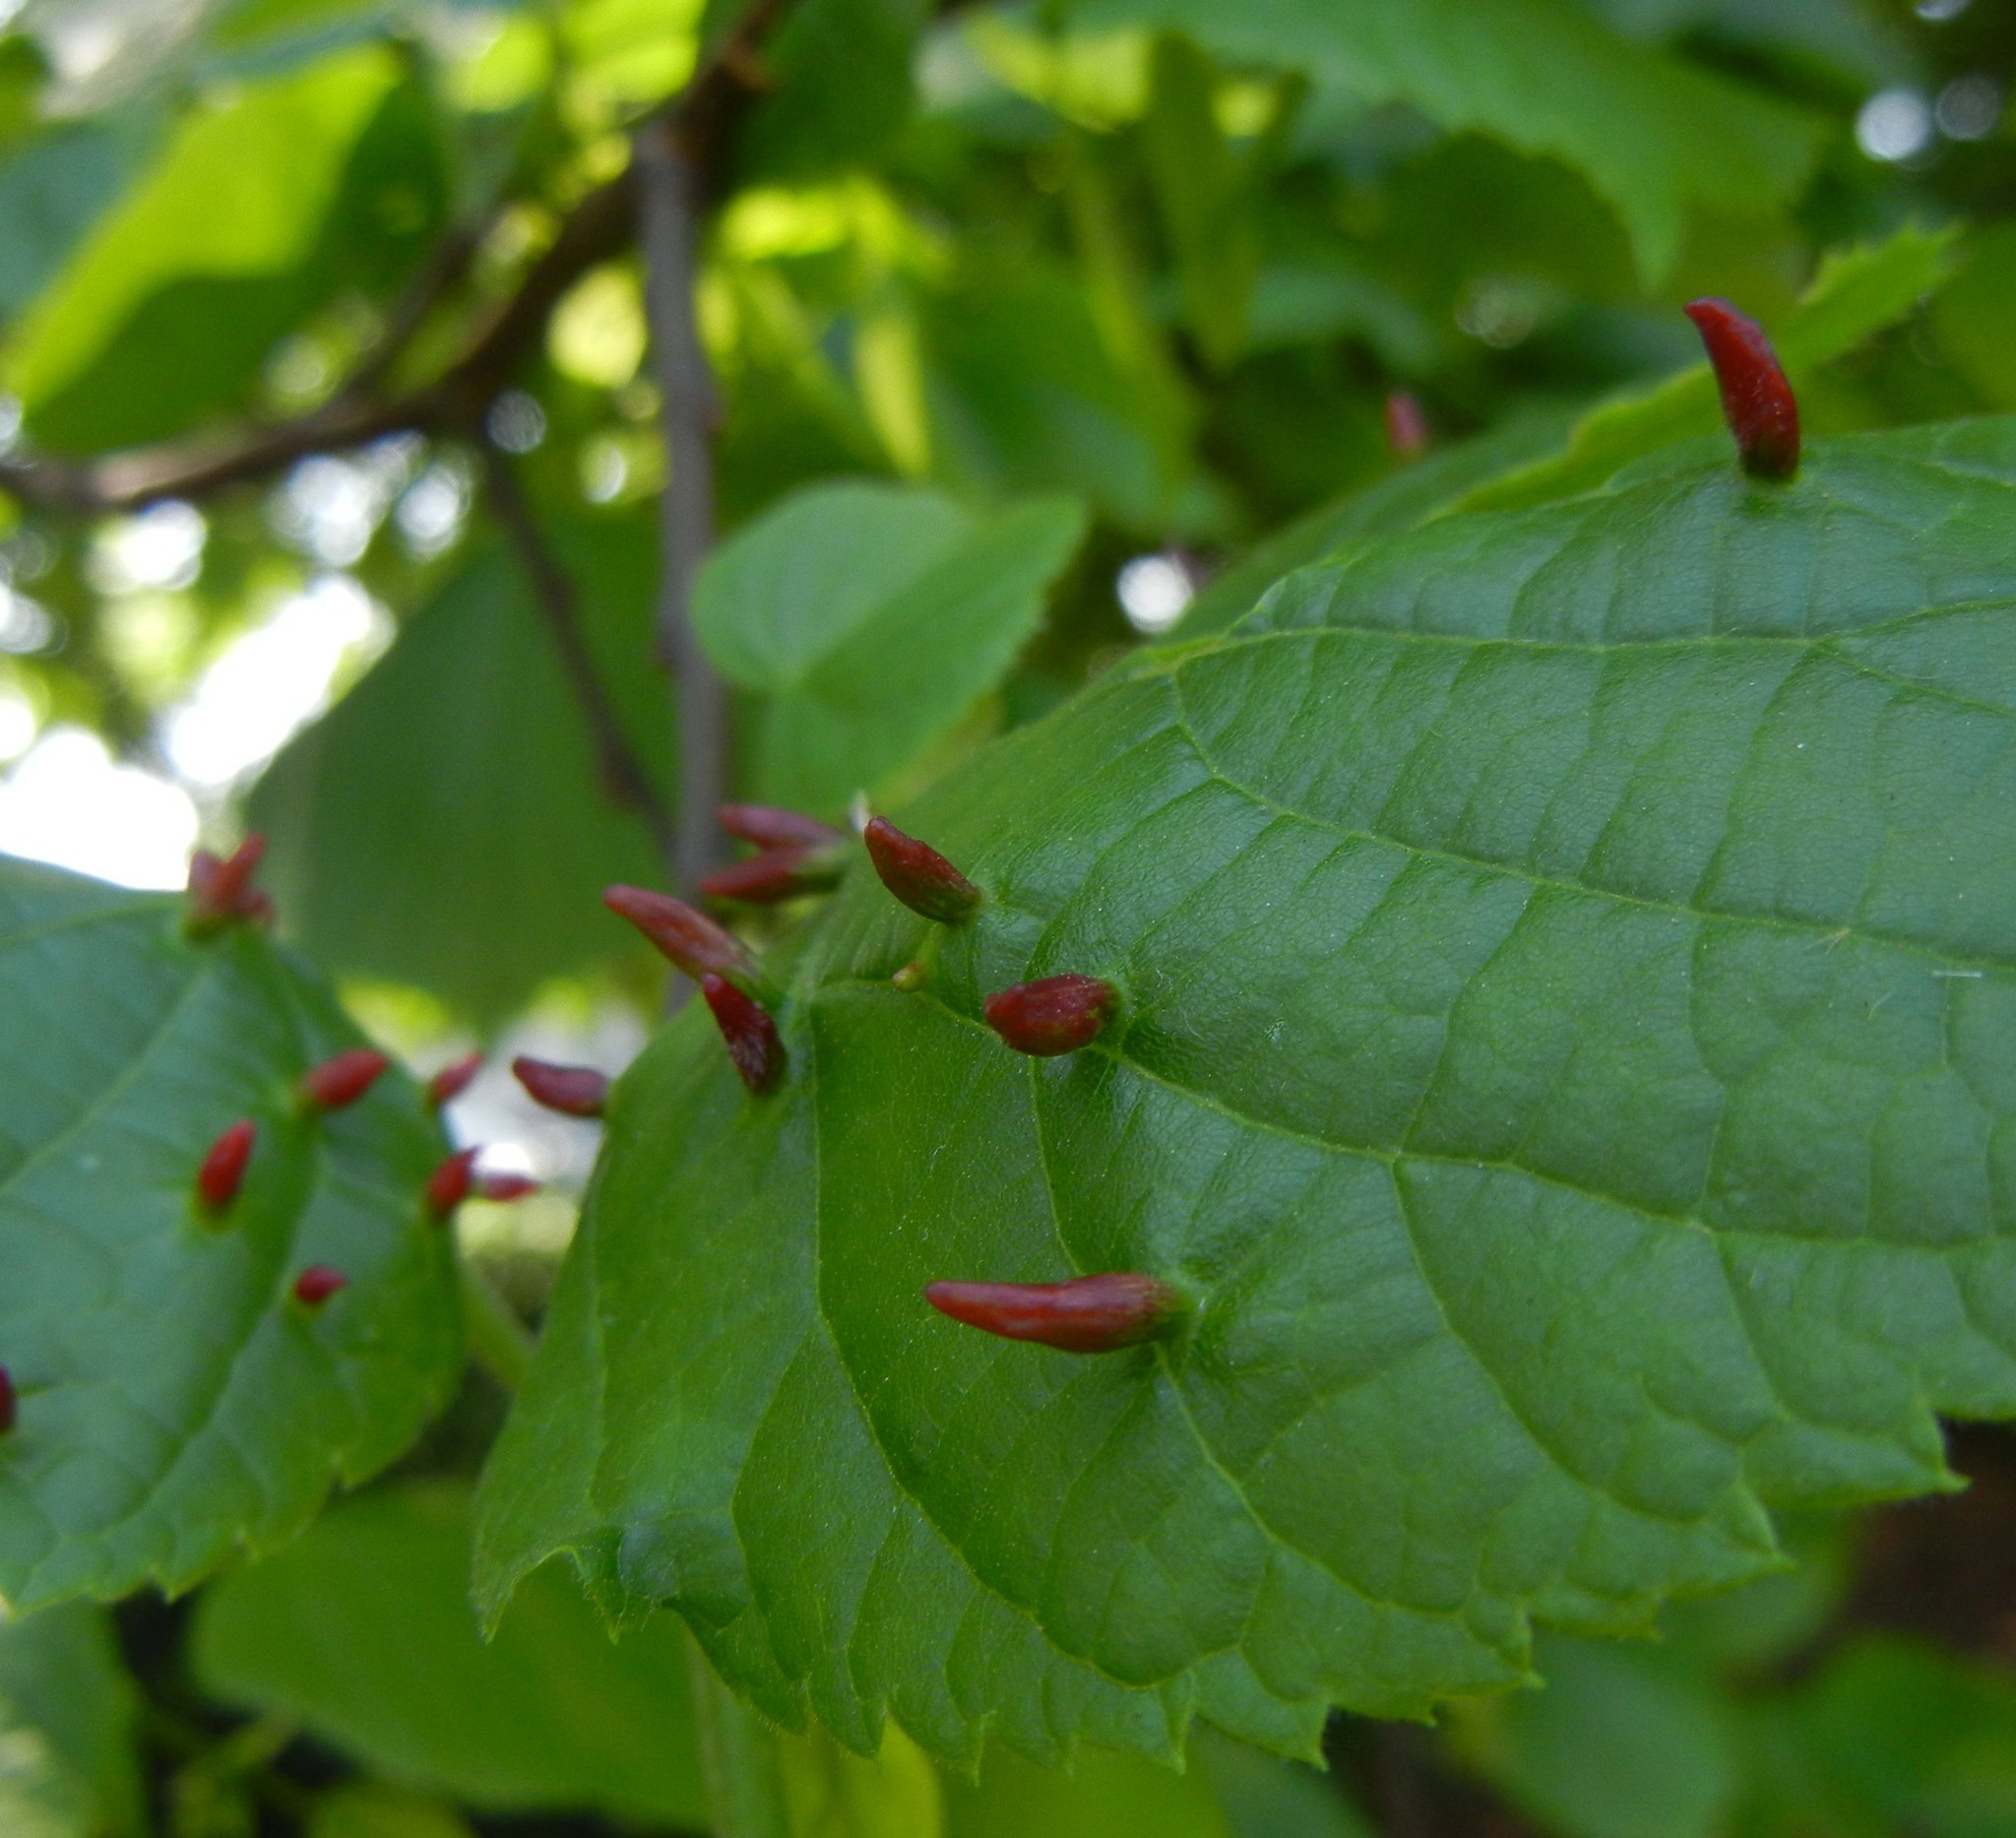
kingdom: Animalia
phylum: Arthropoda
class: Arachnida
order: Trombidiformes
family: Eriophyidae
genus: Eriophyes
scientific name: Eriophyes tiliae
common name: Red nail gall mite
